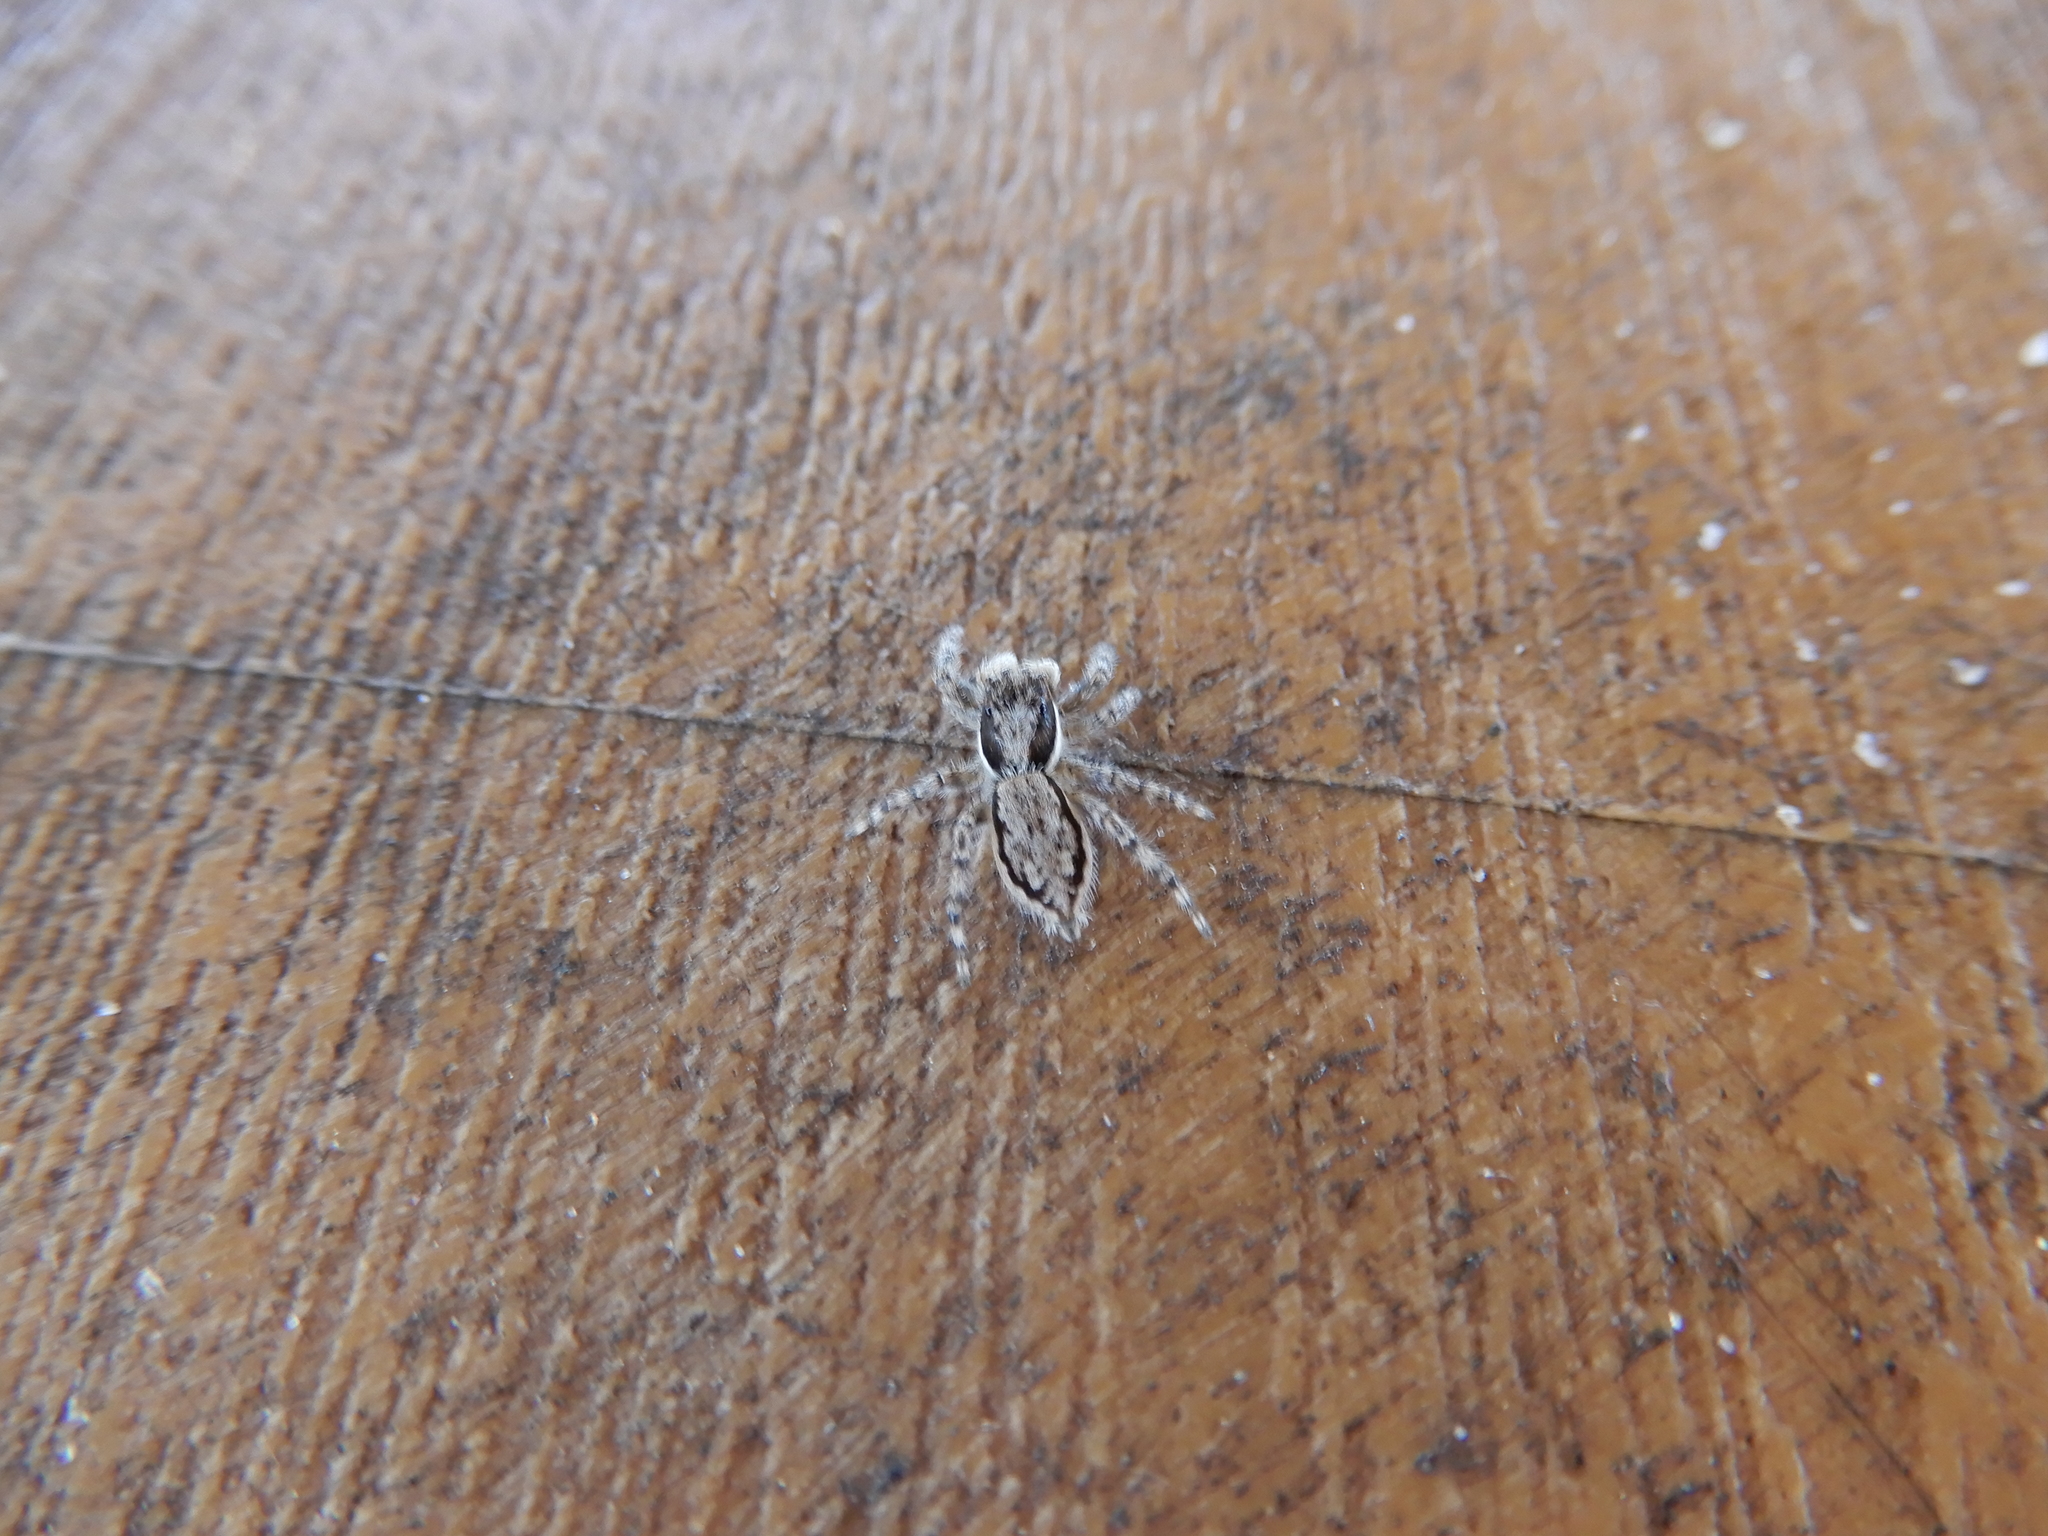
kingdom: Animalia
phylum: Arthropoda
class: Arachnida
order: Araneae
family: Salticidae
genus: Menemerus
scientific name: Menemerus bivittatus
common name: Gray wall jumper
